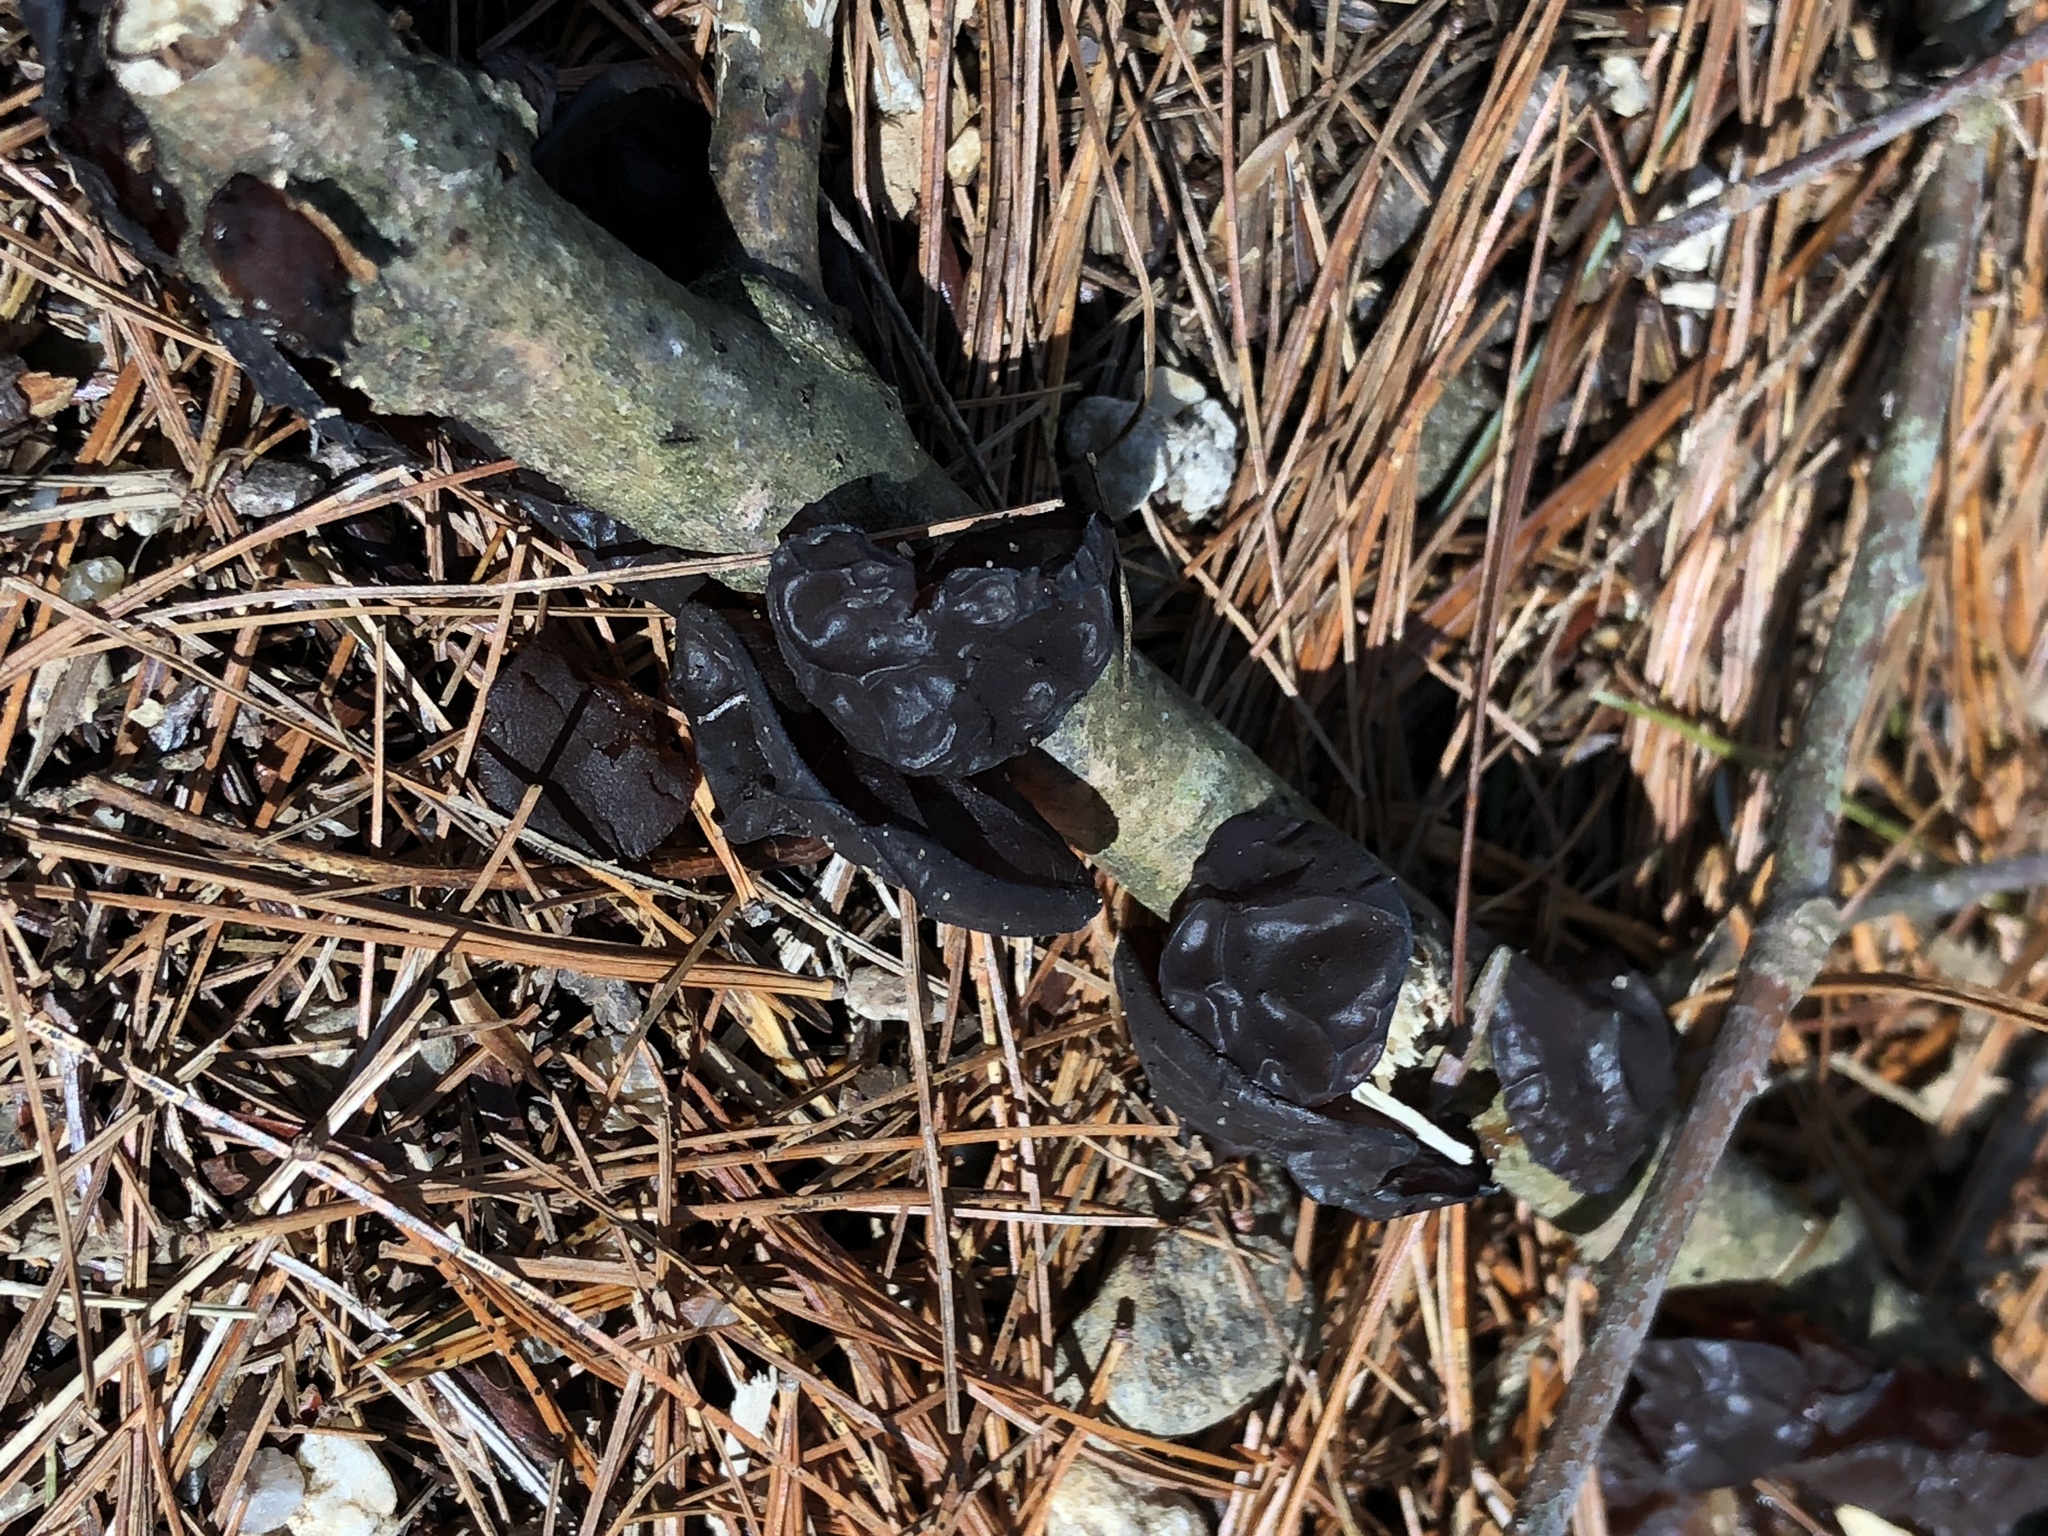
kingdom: Fungi
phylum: Basidiomycota
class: Agaricomycetes
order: Auriculariales
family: Auriculariaceae
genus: Exidia
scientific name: Exidia
